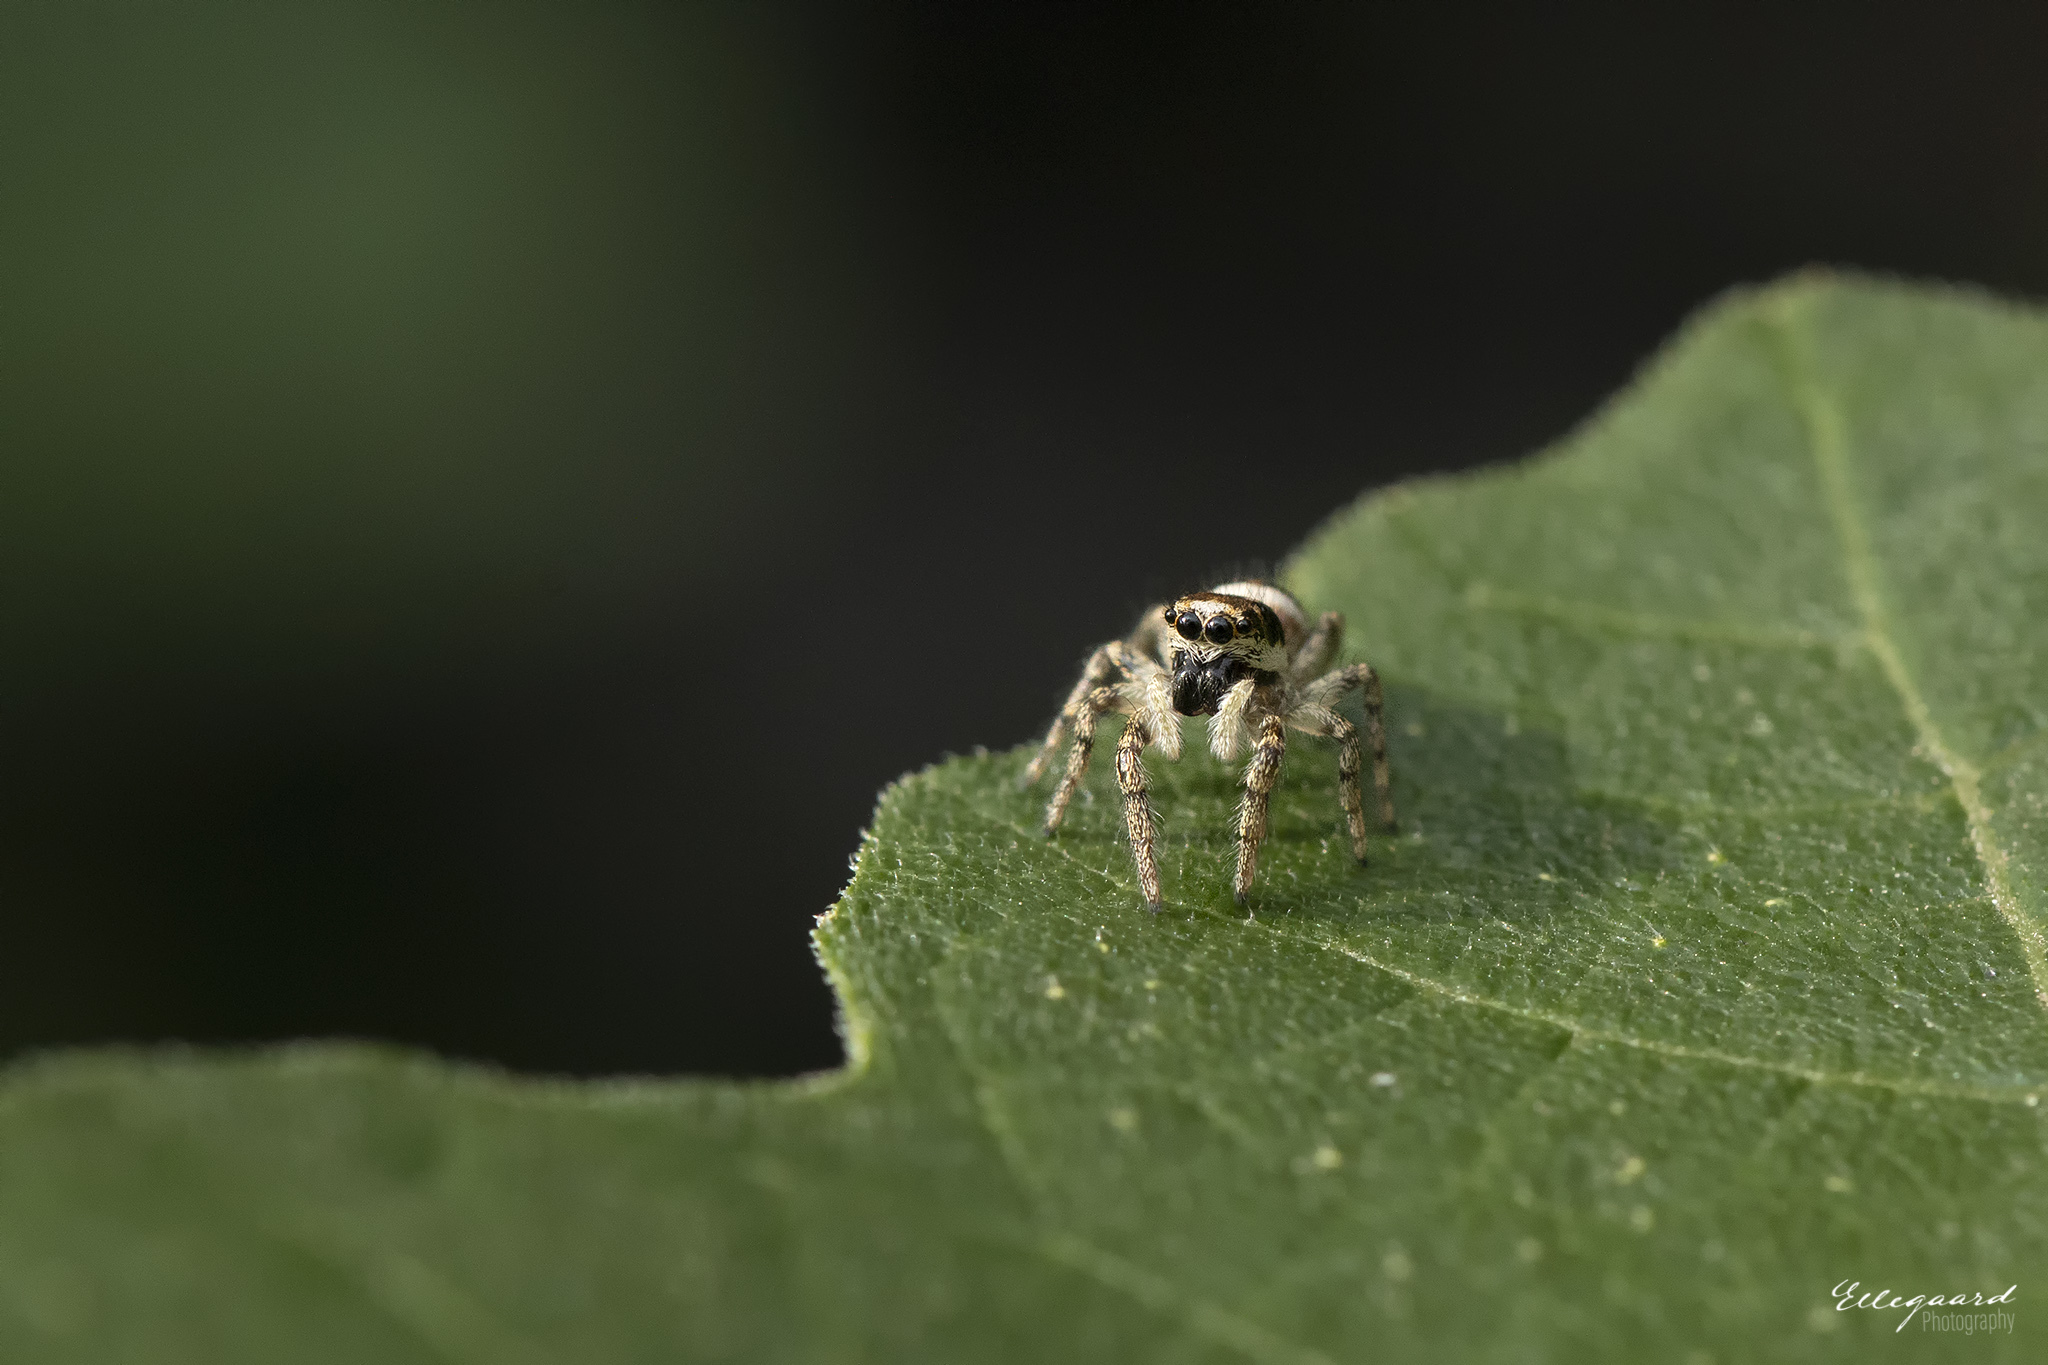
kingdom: Animalia
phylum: Arthropoda
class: Arachnida
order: Araneae
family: Salticidae
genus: Salticus
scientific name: Salticus scenicus
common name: Zebra jumper
